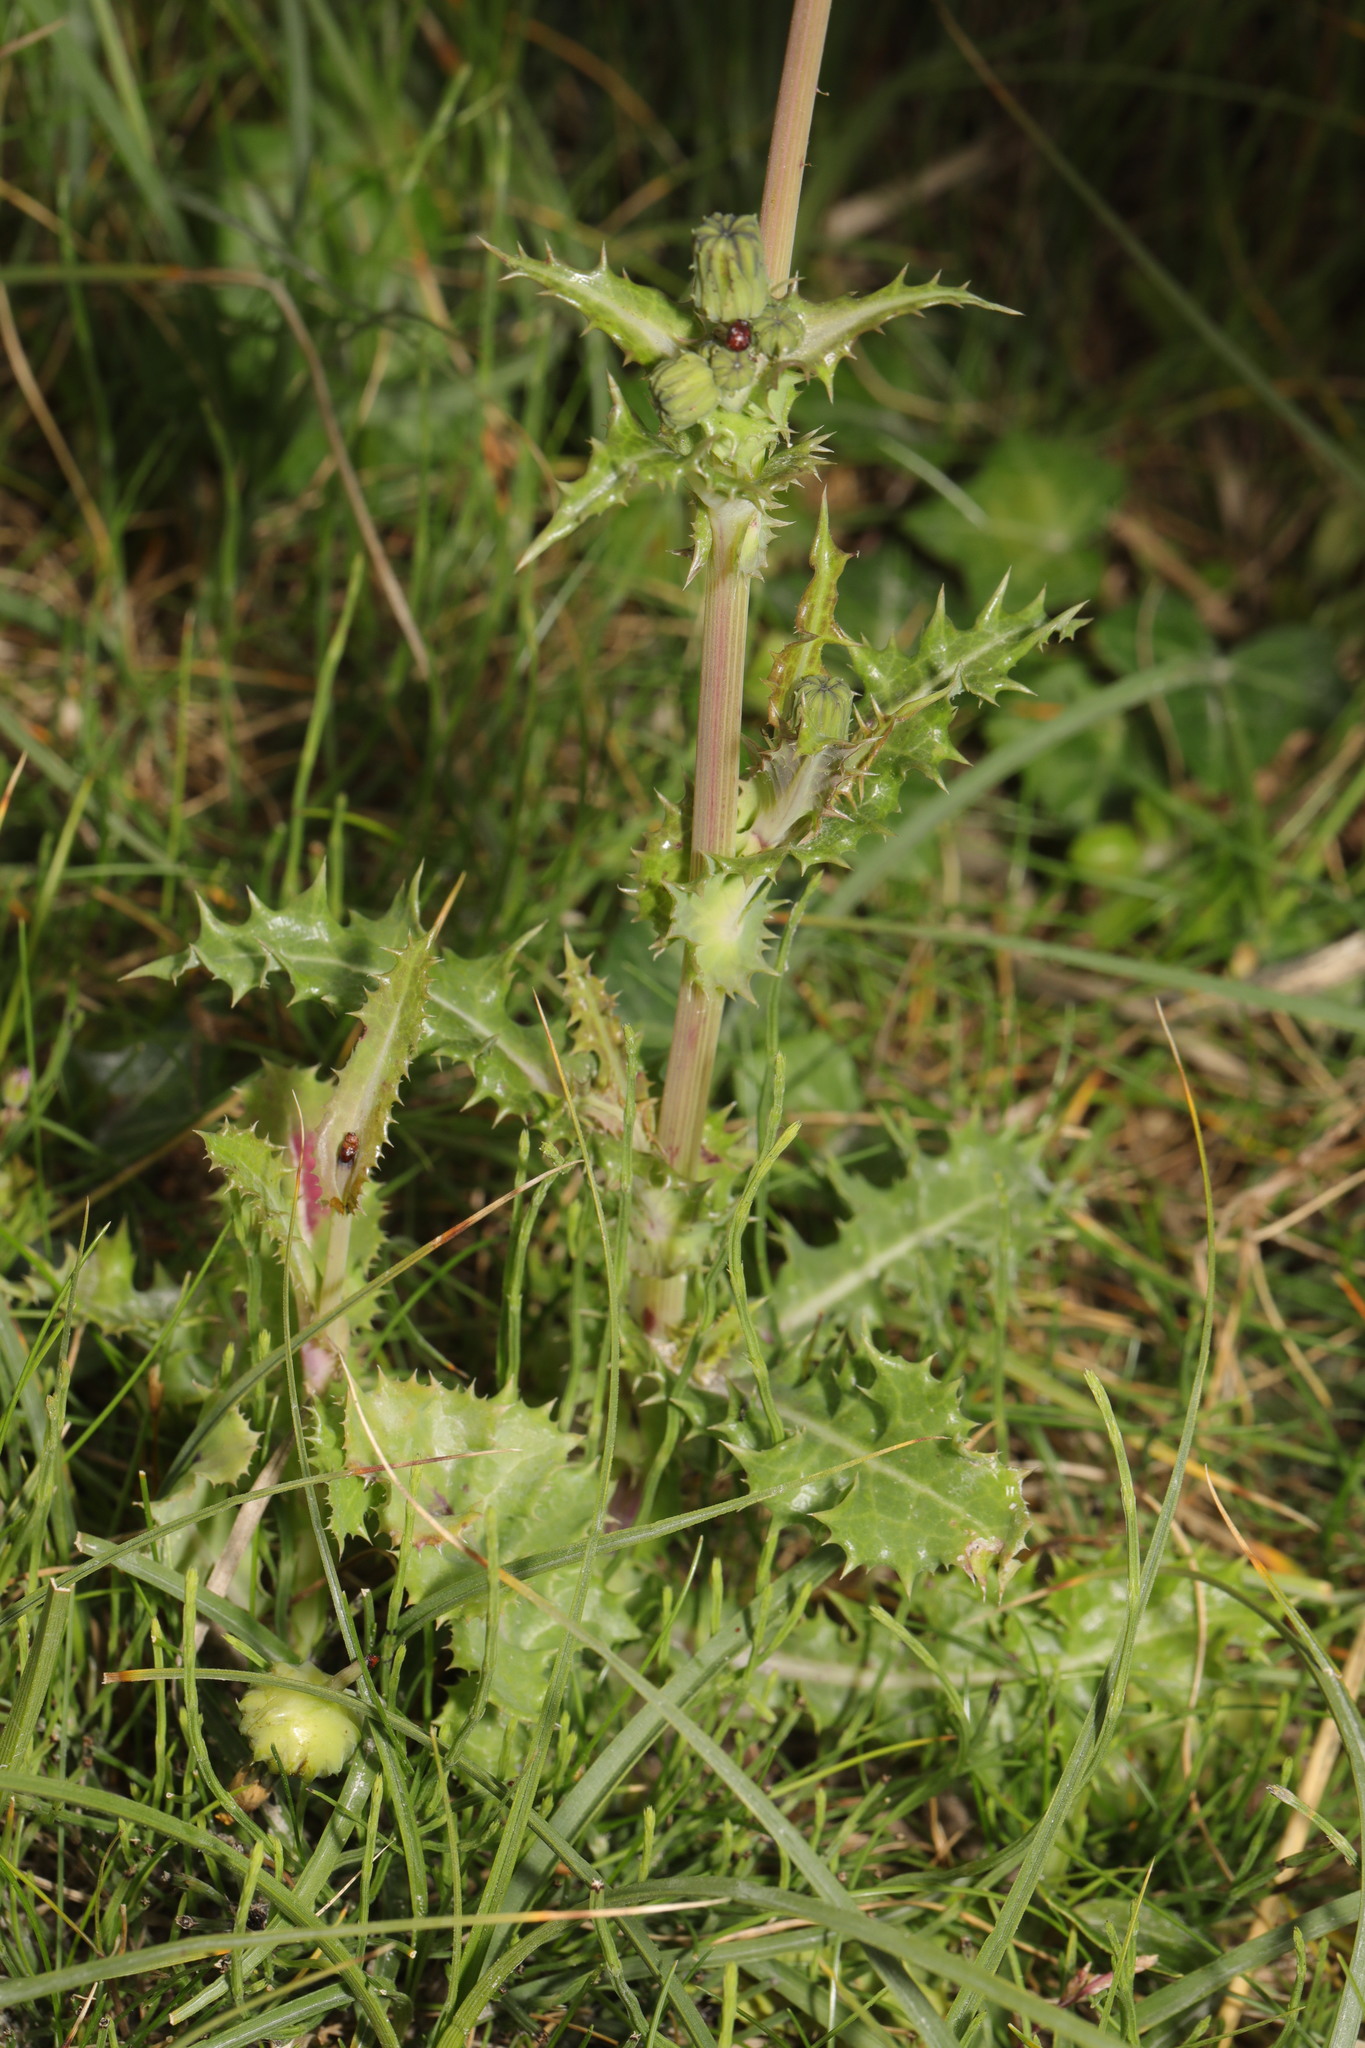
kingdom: Plantae
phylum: Tracheophyta
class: Magnoliopsida
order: Asterales
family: Asteraceae
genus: Sonchus
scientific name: Sonchus asper
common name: Prickly sow-thistle
